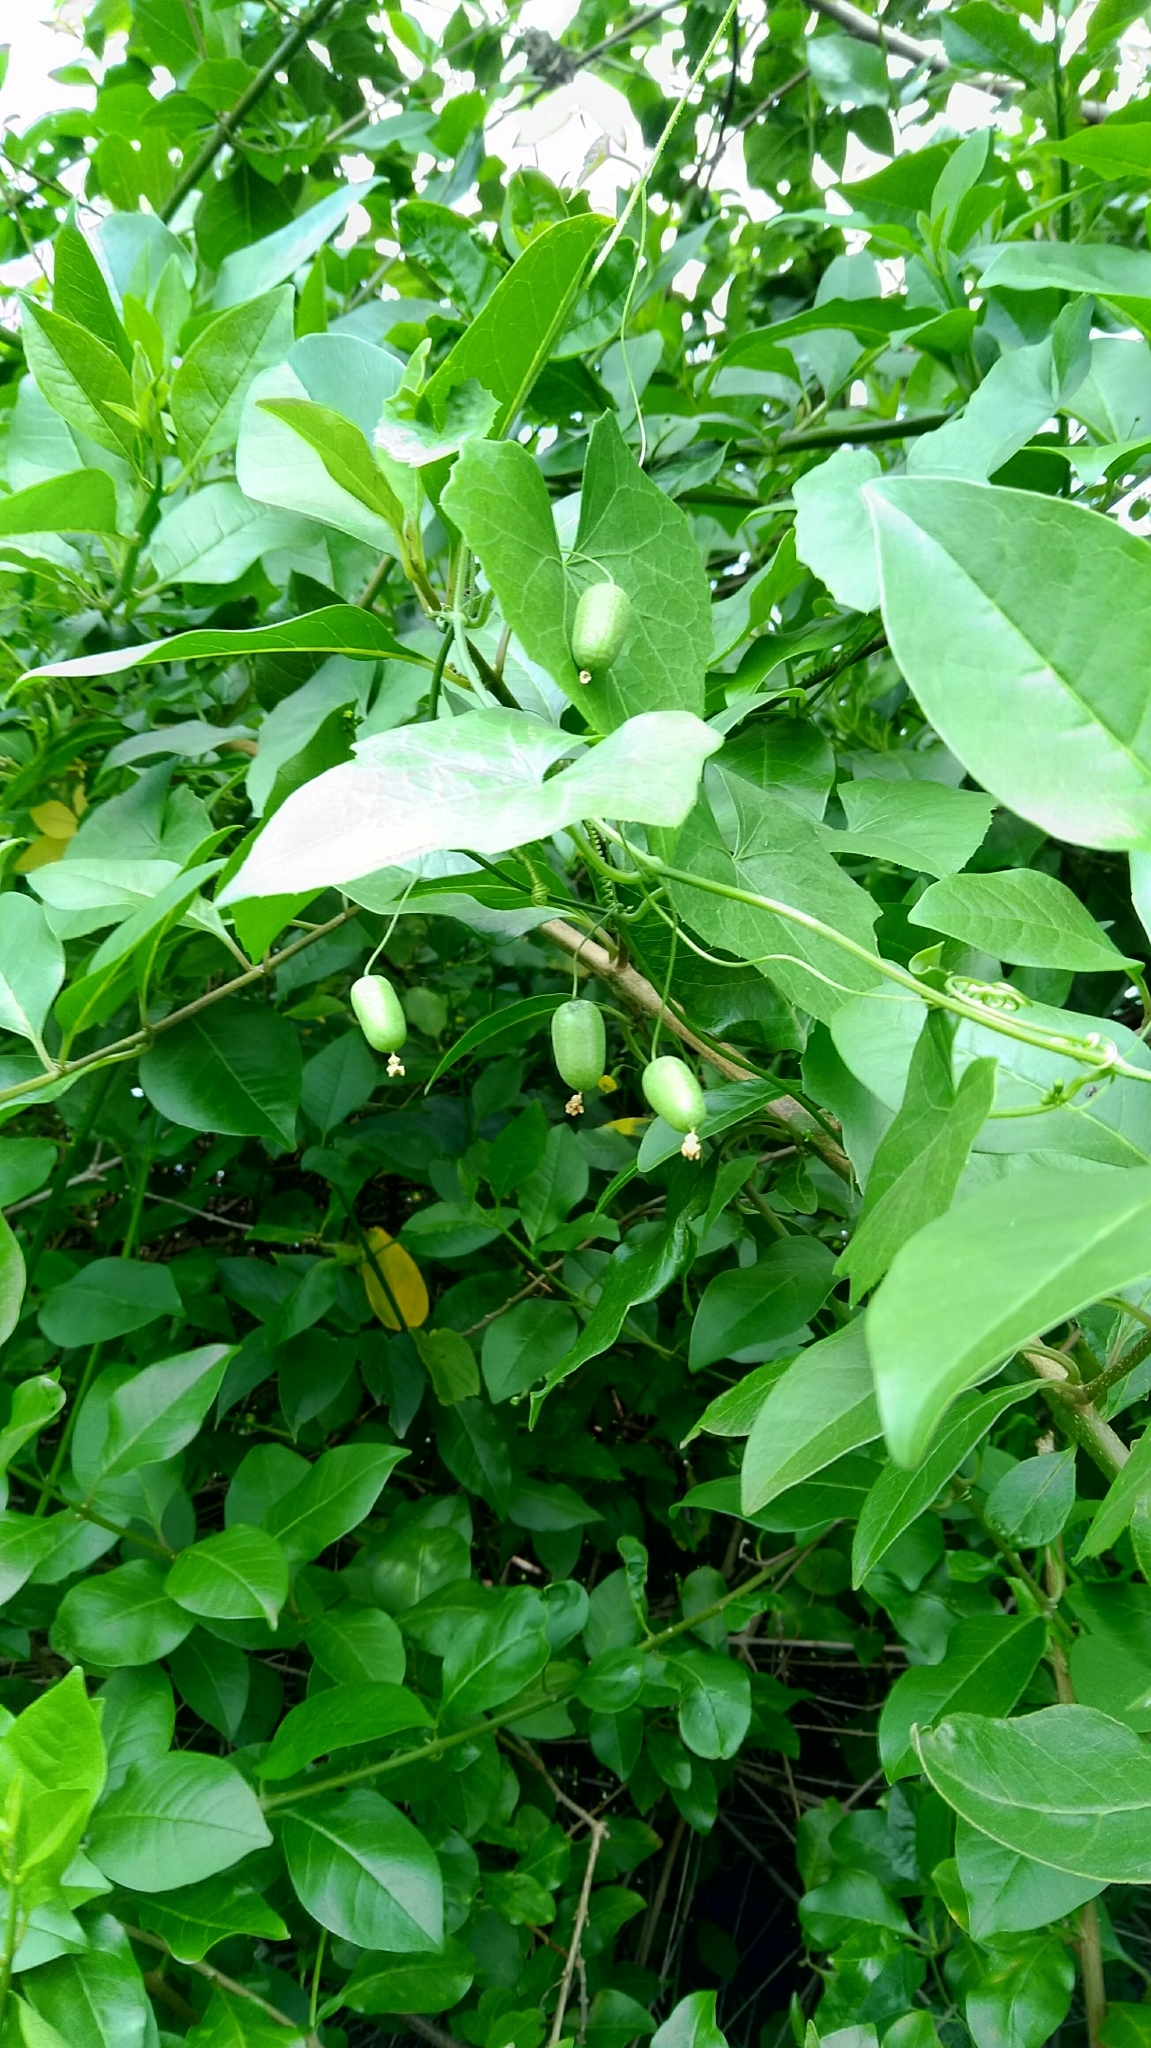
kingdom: Plantae
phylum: Tracheophyta
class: Magnoliopsida
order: Cucurbitales
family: Cucurbitaceae
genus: Melothria
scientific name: Melothria pendula
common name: Creeping-cucumber
